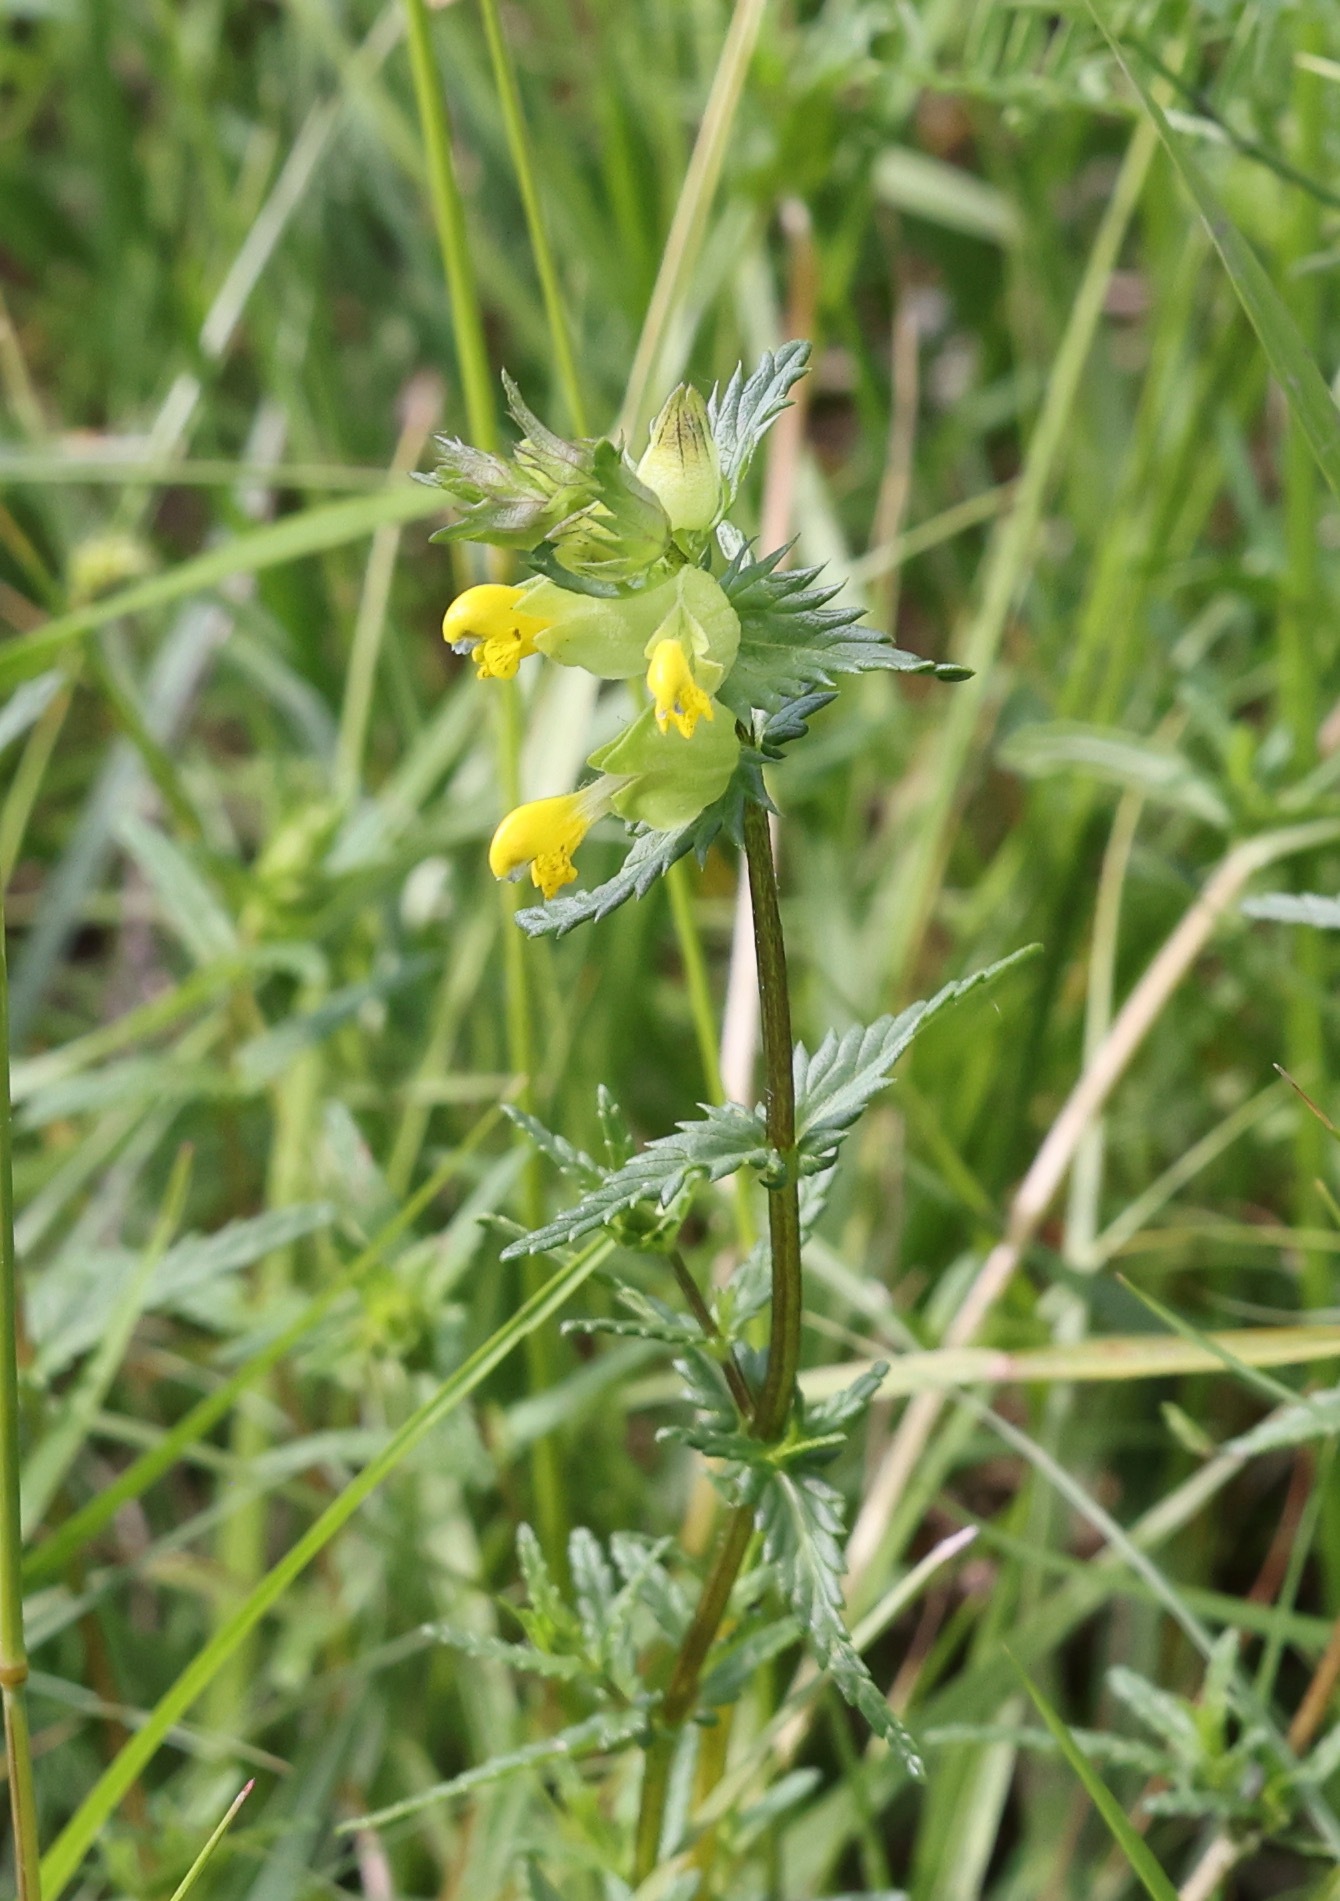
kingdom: Plantae
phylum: Tracheophyta
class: Magnoliopsida
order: Lamiales
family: Orobanchaceae
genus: Rhinanthus
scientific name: Rhinanthus minor
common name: Yellow-rattle
